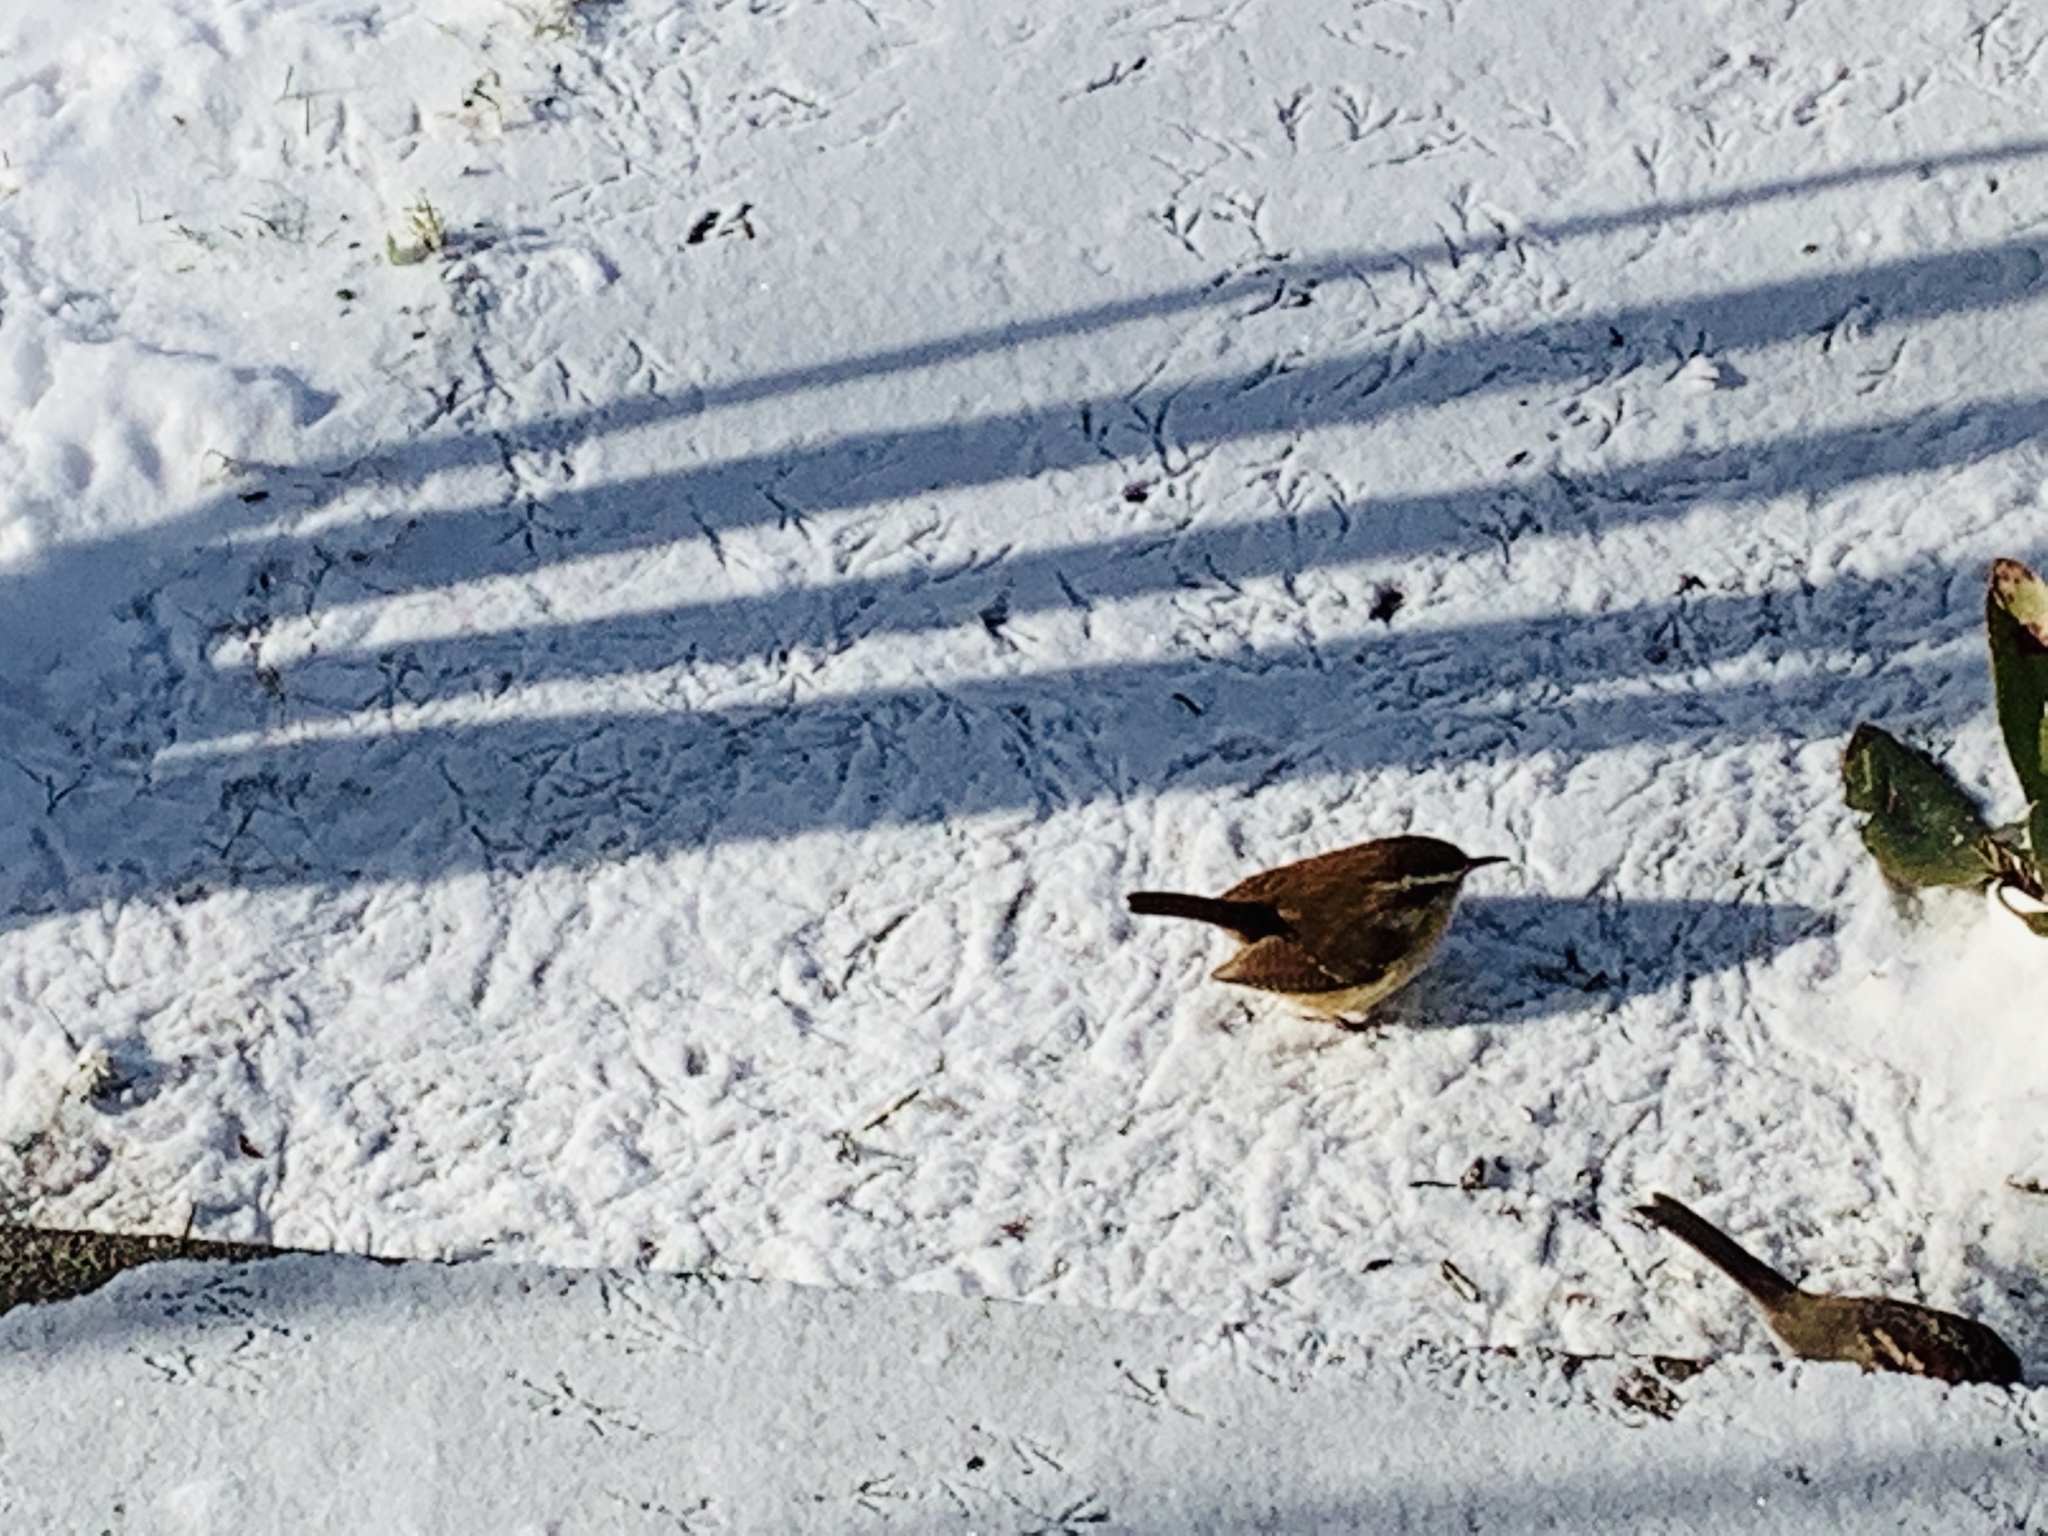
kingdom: Animalia
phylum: Chordata
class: Aves
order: Passeriformes
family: Troglodytidae
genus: Thryothorus
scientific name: Thryothorus ludovicianus
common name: Carolina wren
